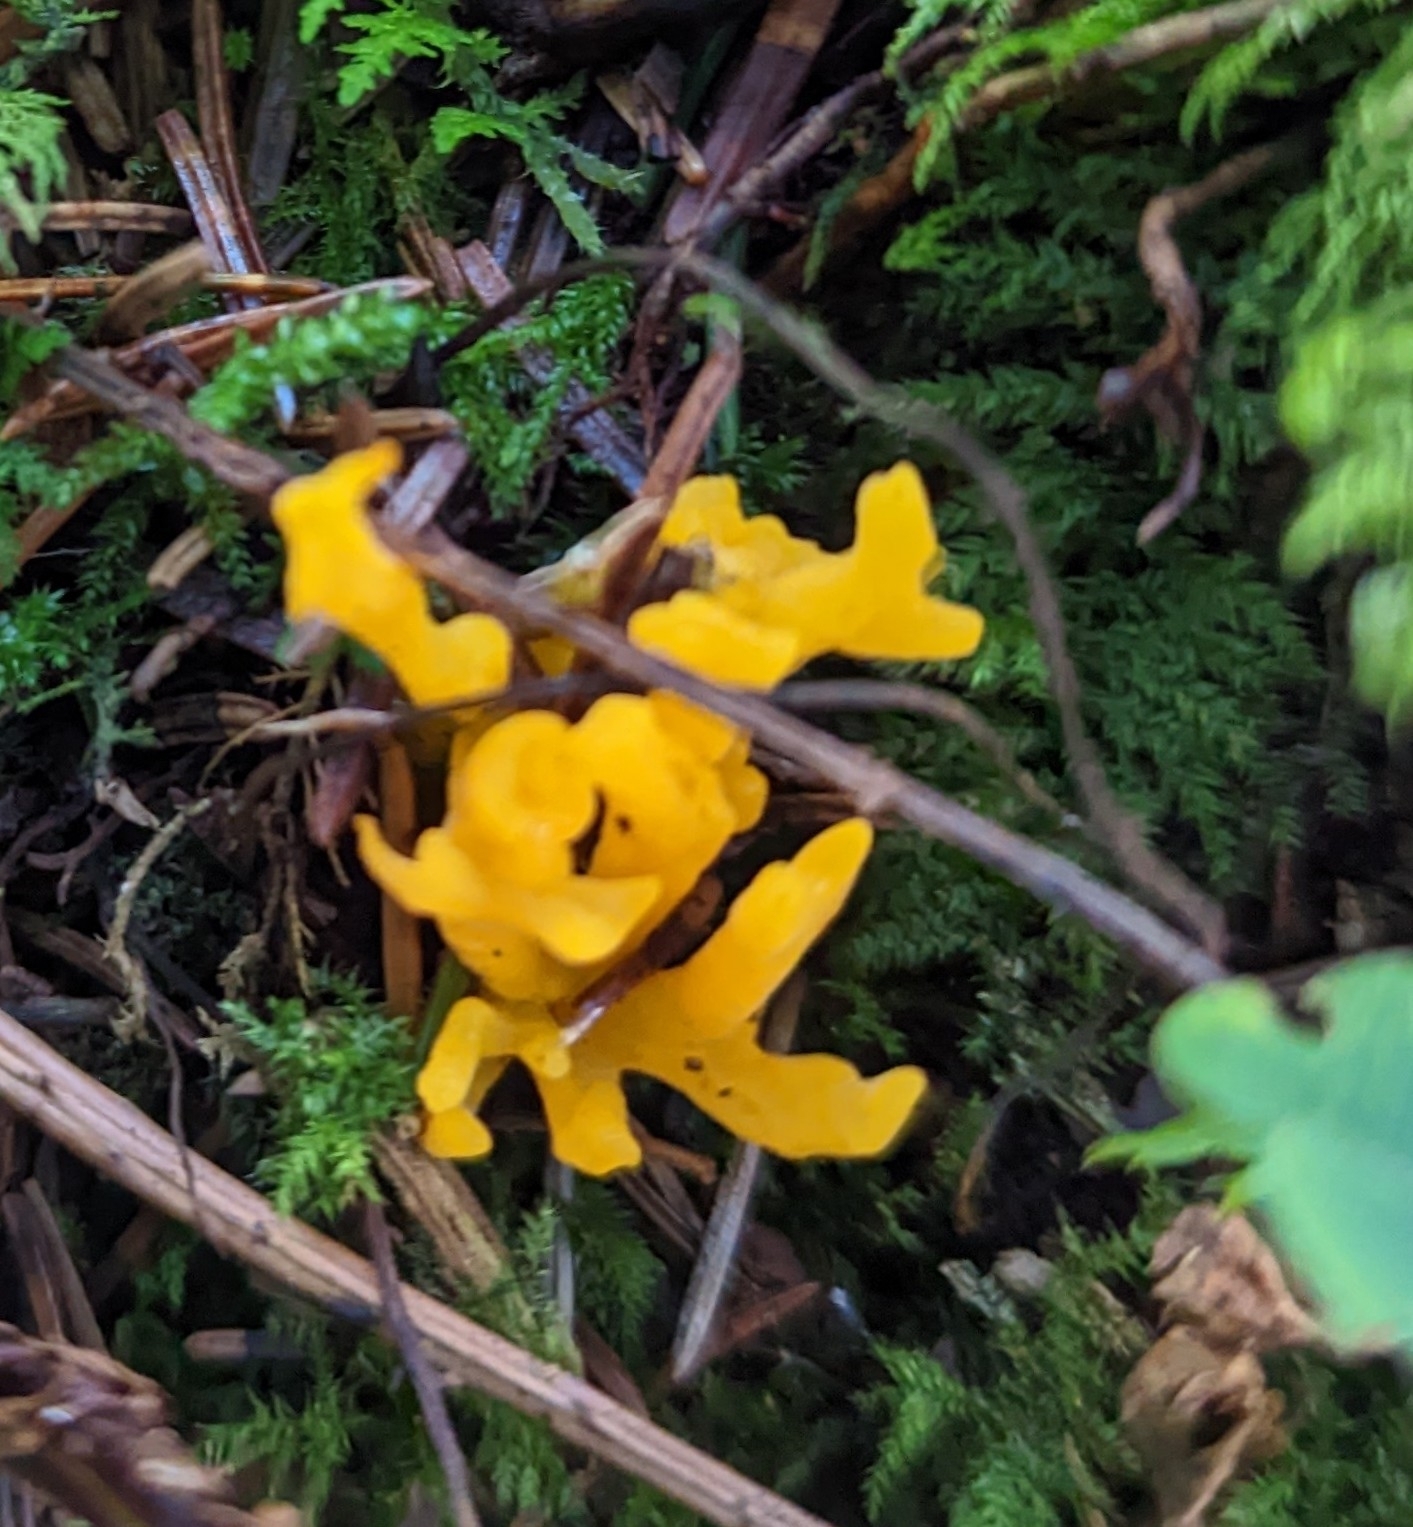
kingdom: Fungi
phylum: Basidiomycota
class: Dacrymycetes
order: Dacrymycetales
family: Dacrymycetaceae
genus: Calocera
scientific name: Calocera viscosa
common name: Yellow stagshorn
